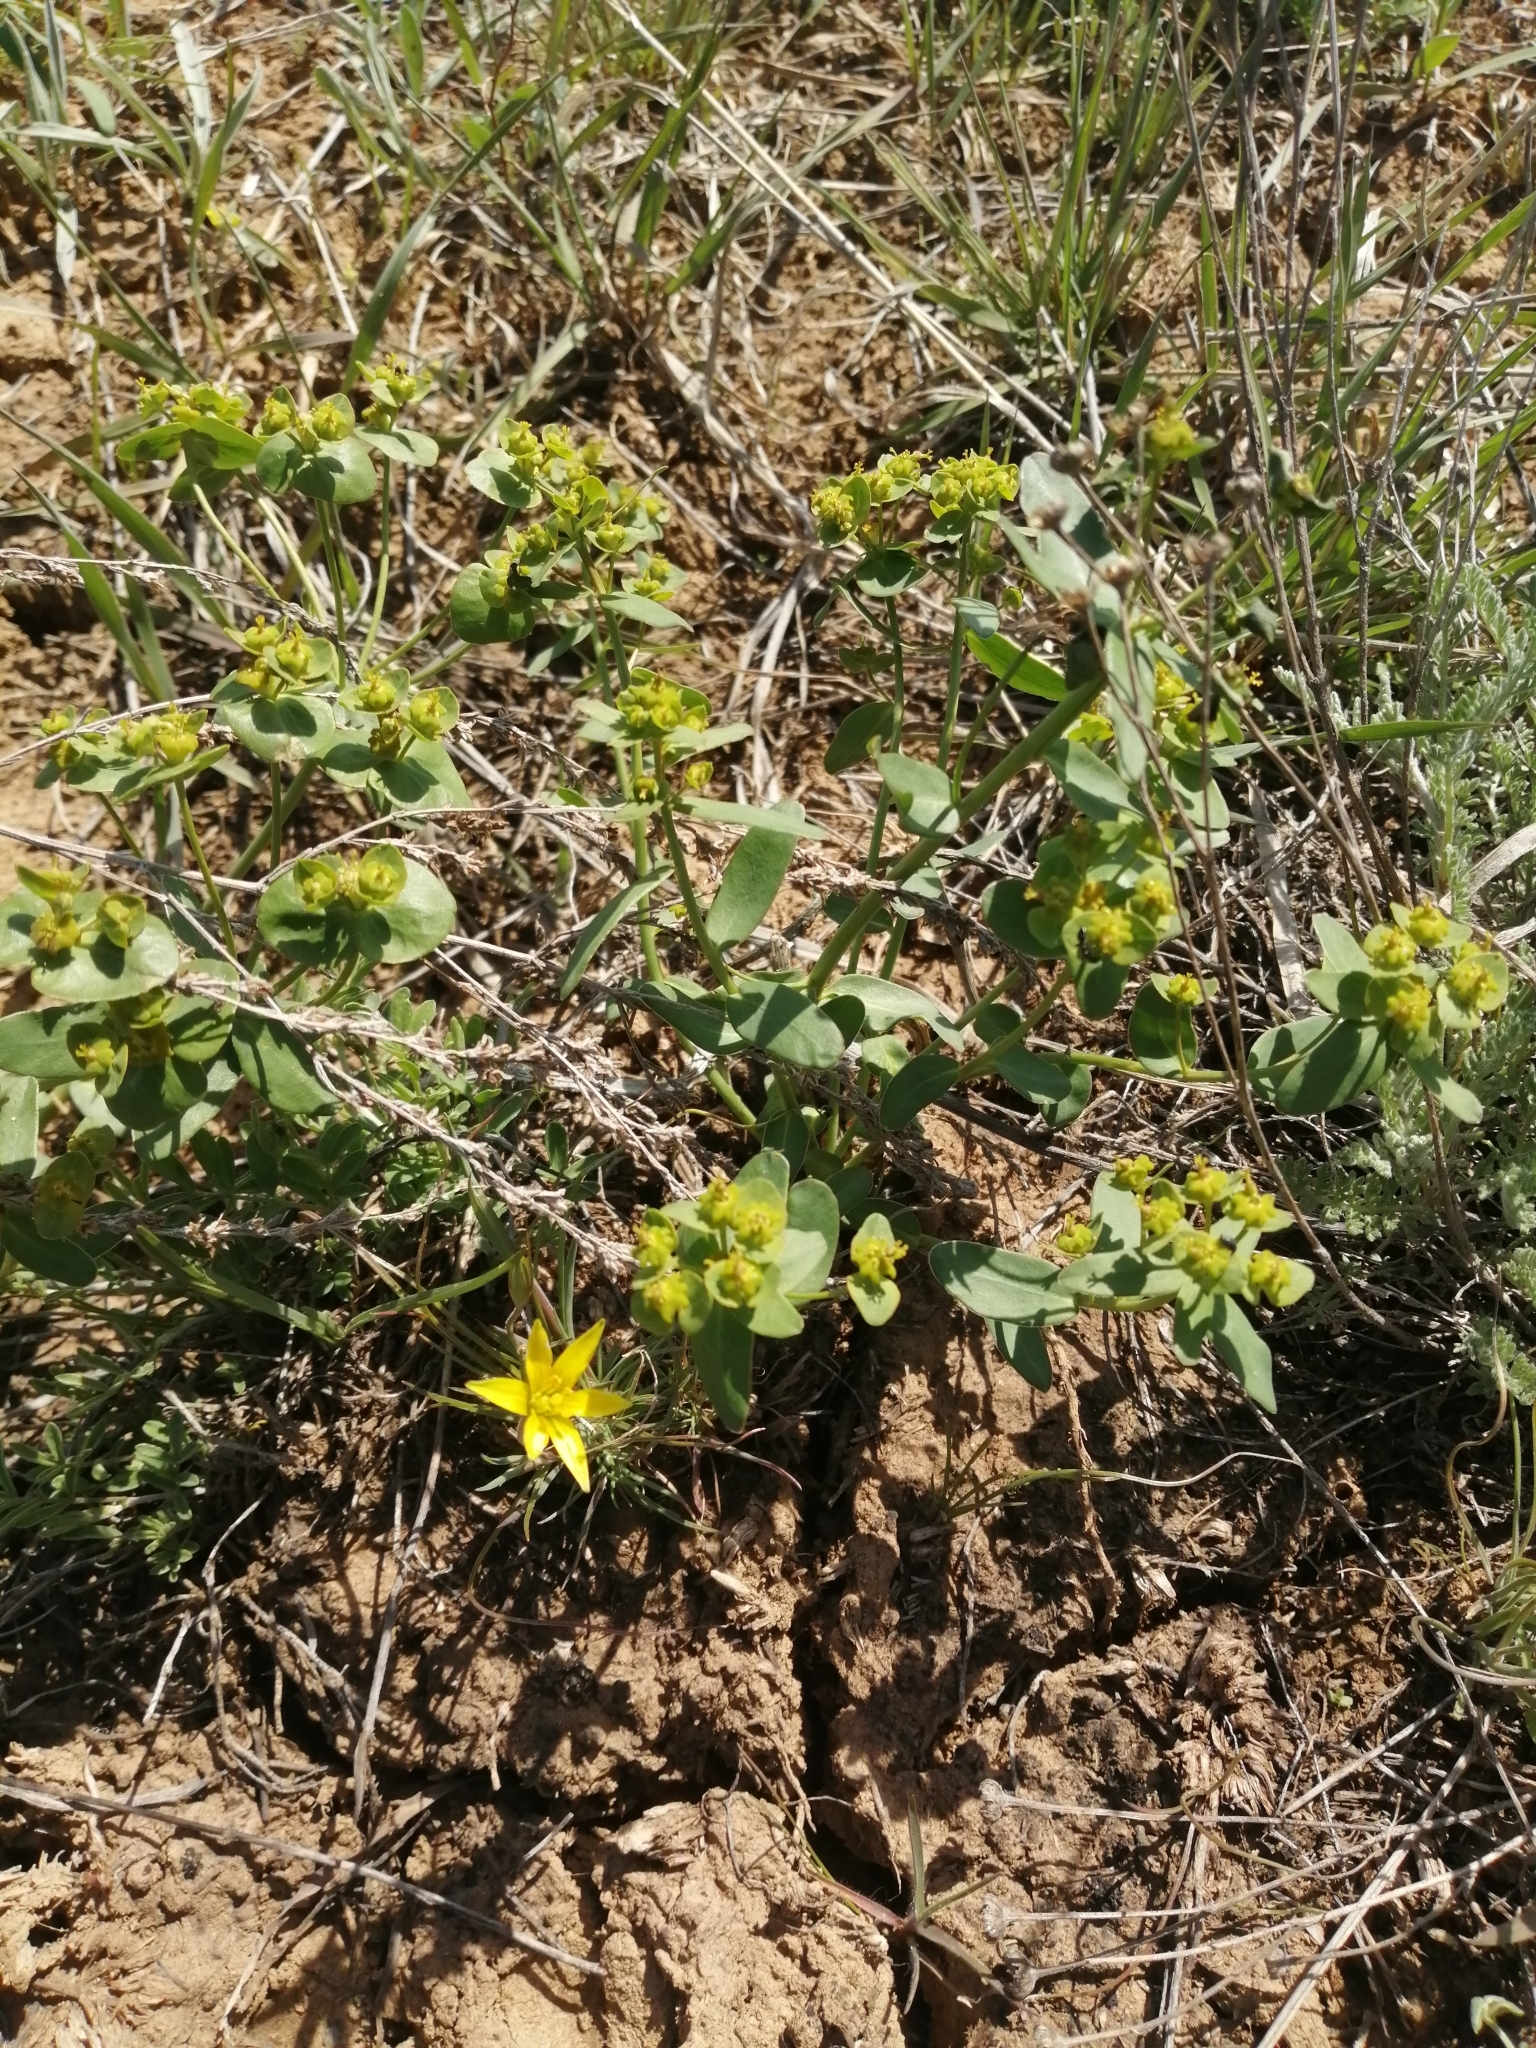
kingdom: Plantae
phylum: Tracheophyta
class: Magnoliopsida
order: Malpighiales
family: Euphorbiaceae
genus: Euphorbia
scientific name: Euphorbia esula
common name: Leafy spurge
